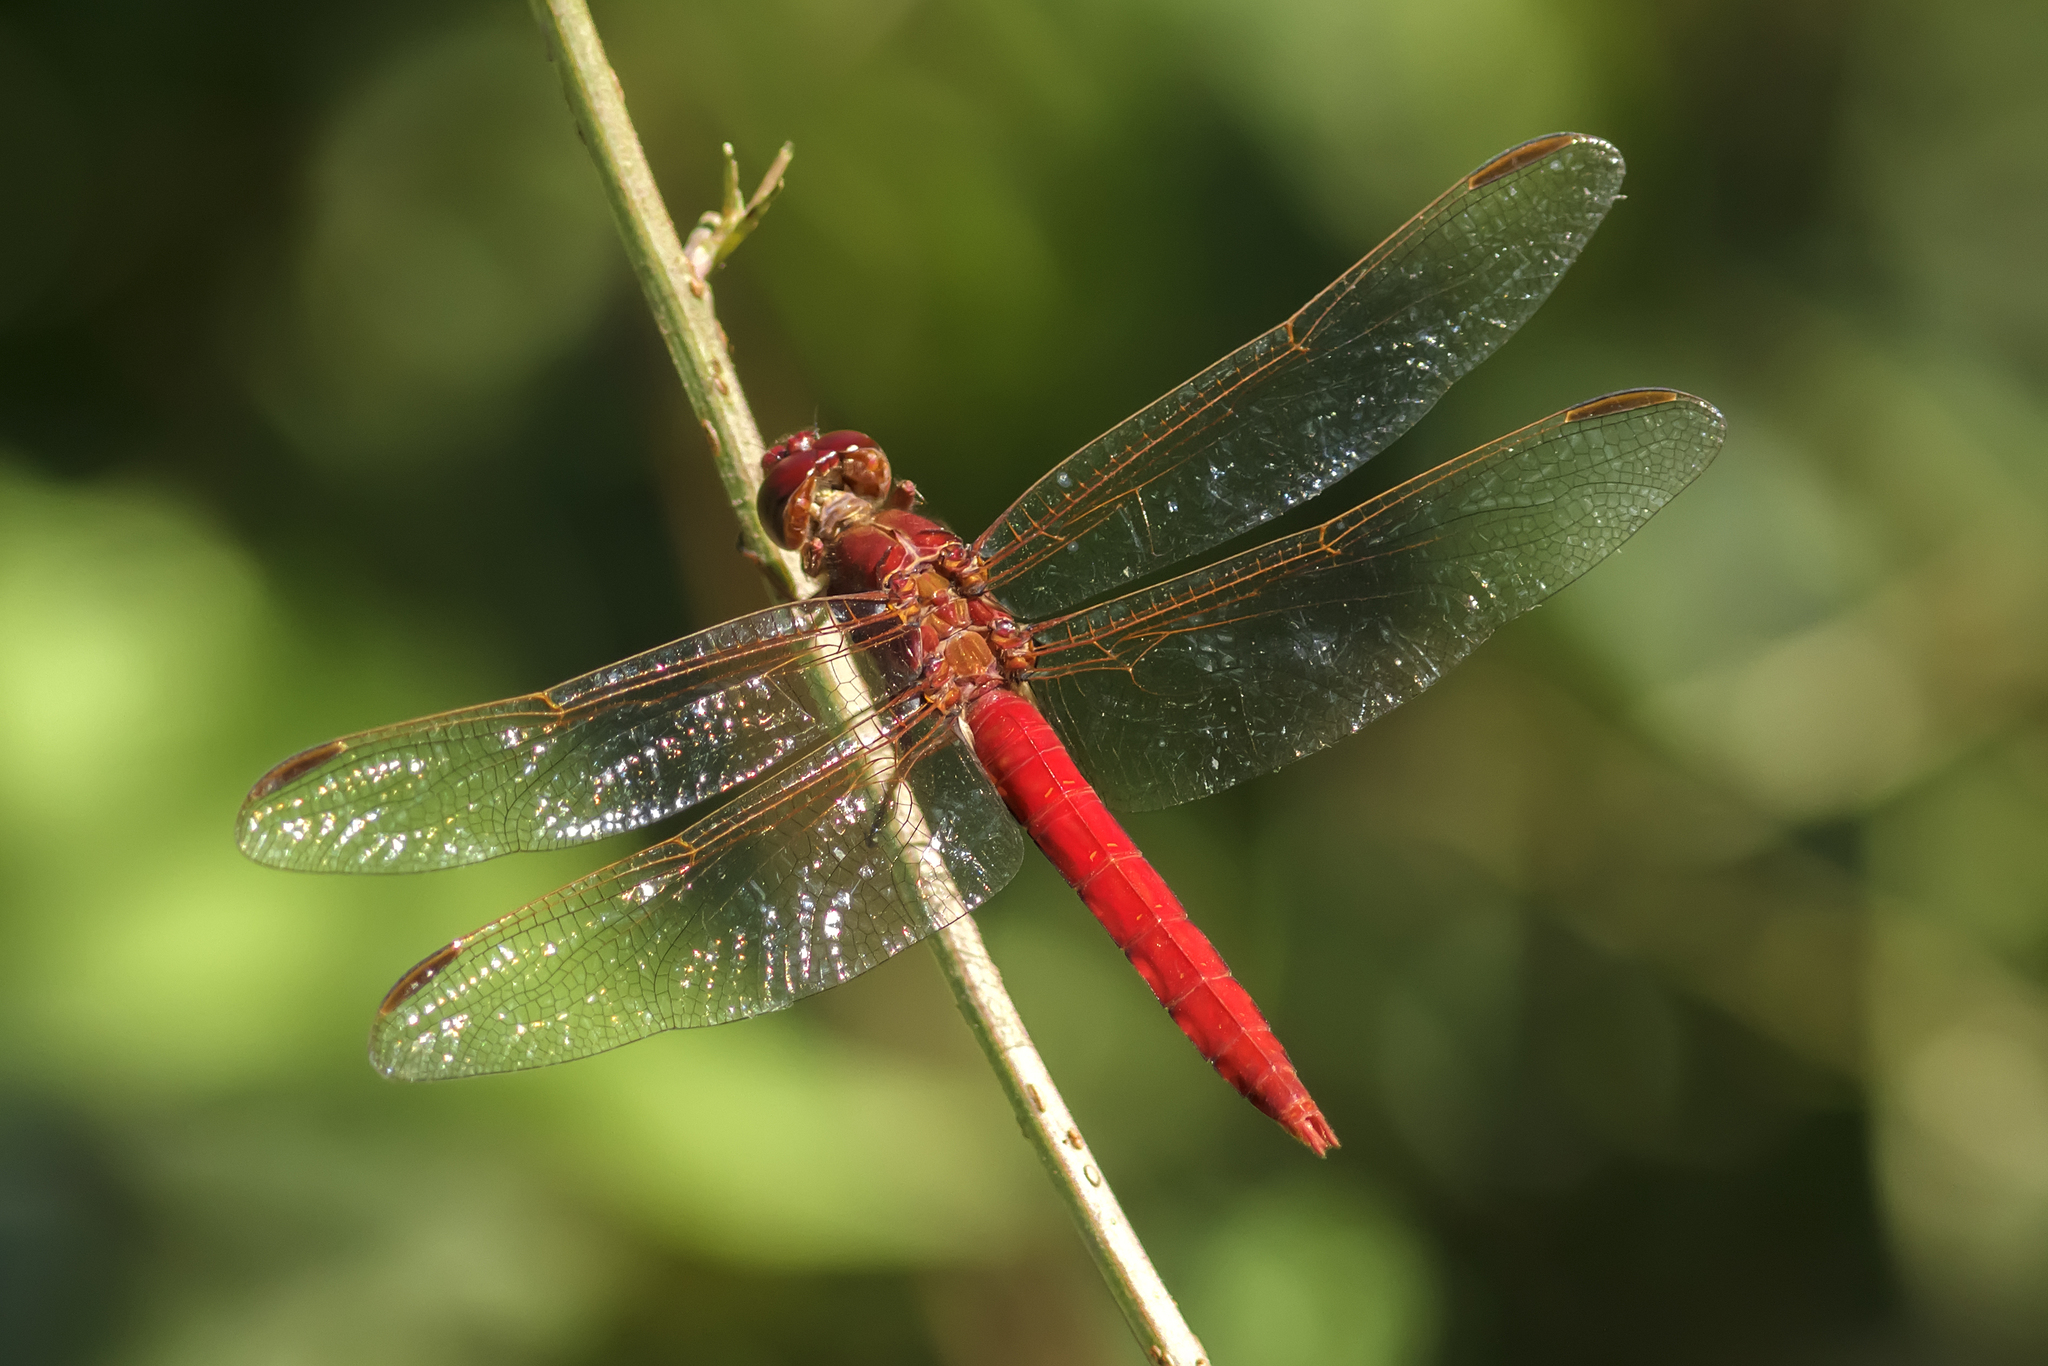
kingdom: Animalia
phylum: Arthropoda
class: Insecta
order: Odonata
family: Libellulidae
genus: Orthemis
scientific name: Orthemis nodiplaga
